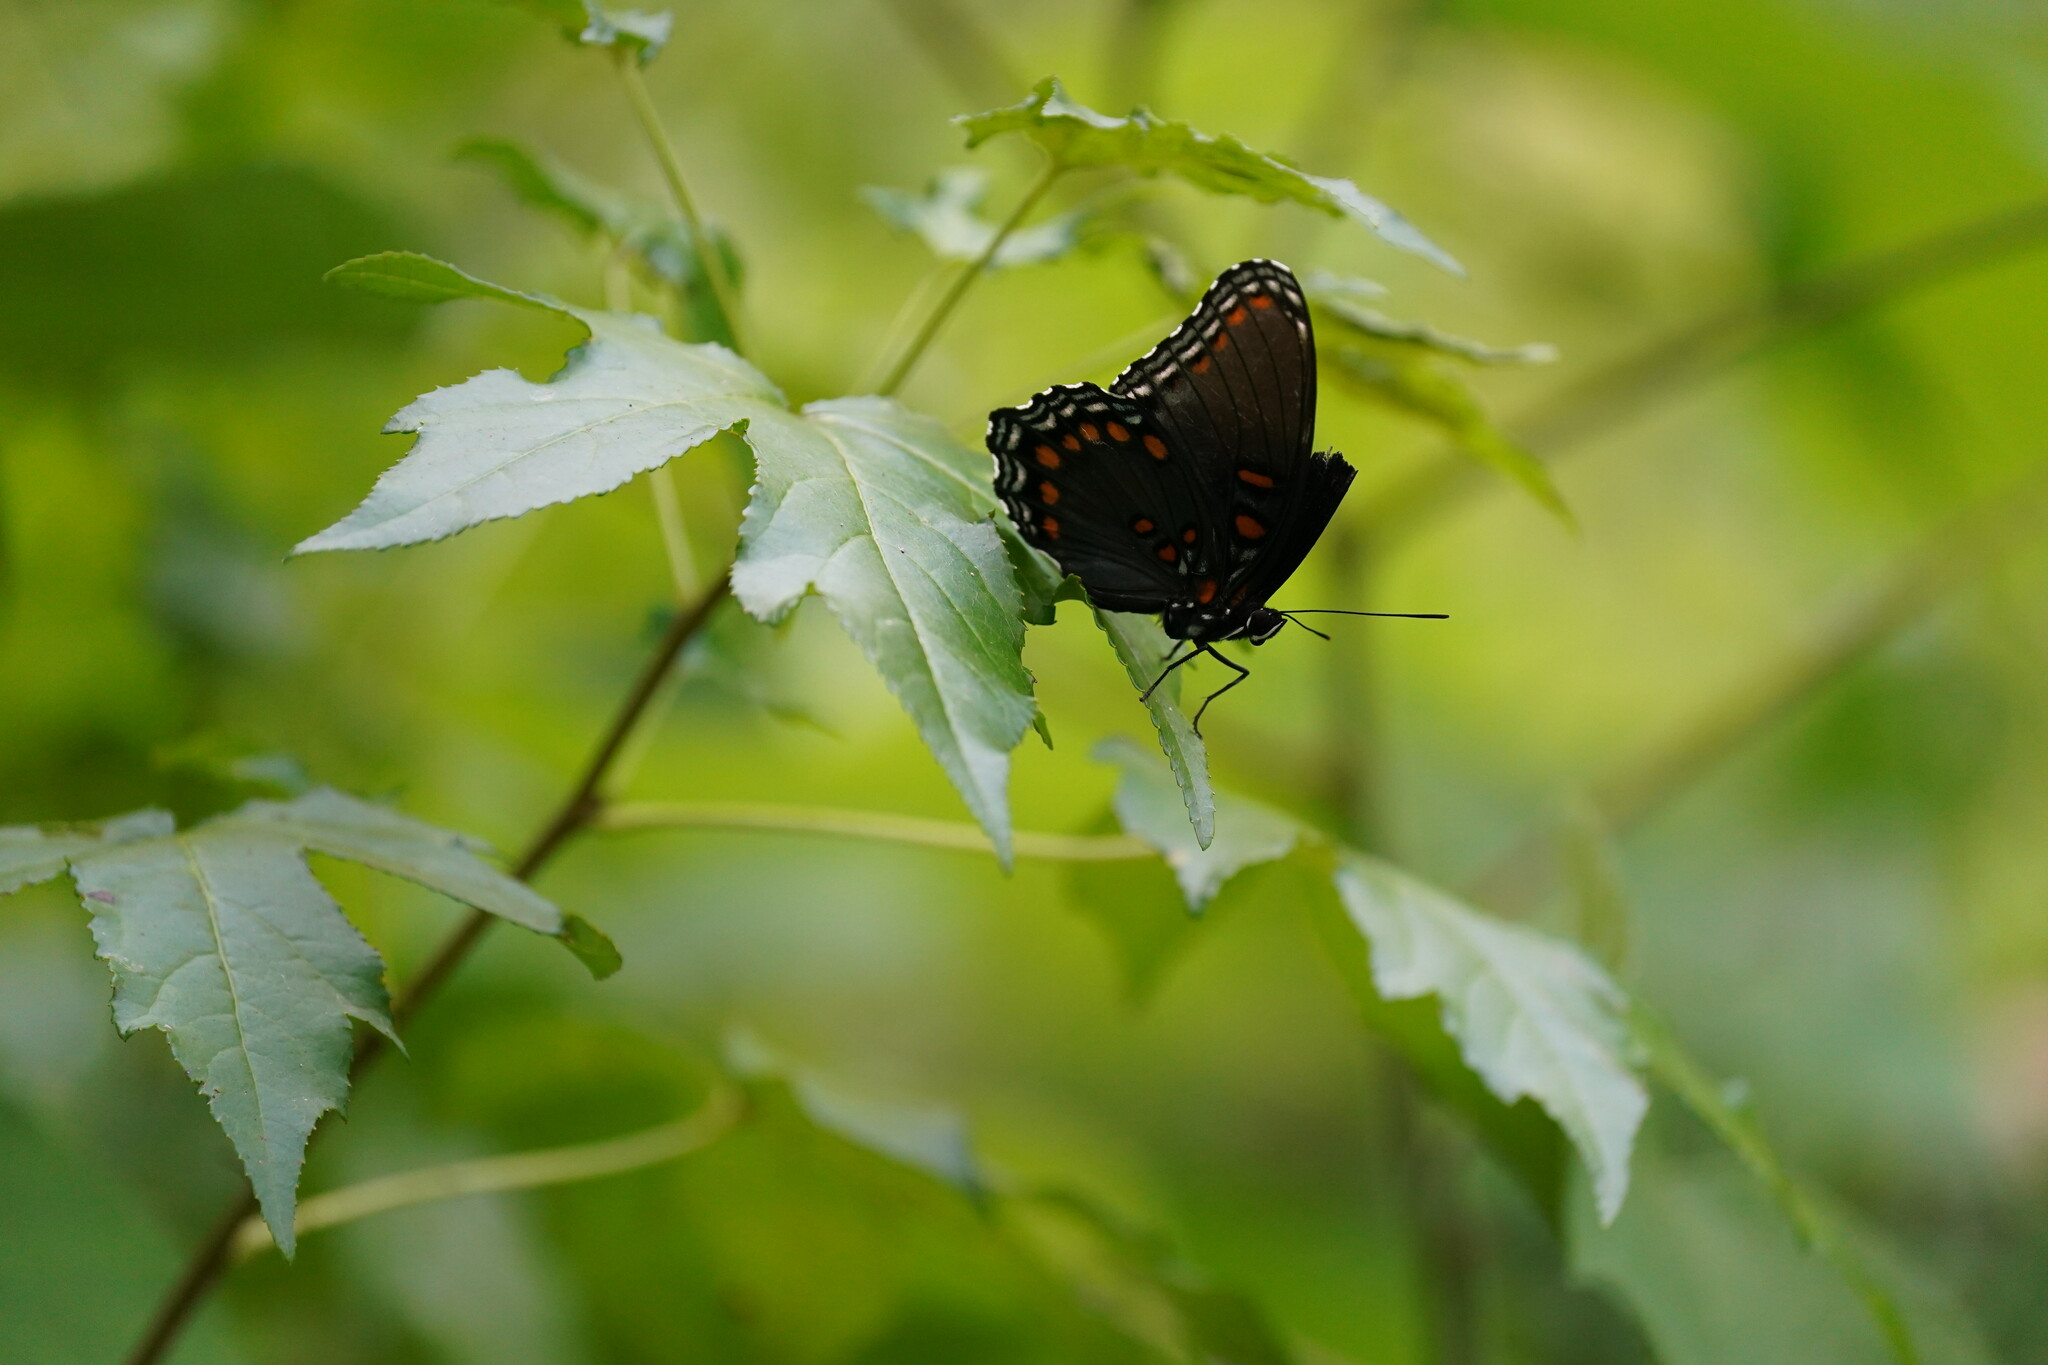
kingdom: Animalia
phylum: Arthropoda
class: Insecta
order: Lepidoptera
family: Nymphalidae
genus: Limenitis
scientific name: Limenitis arthemis
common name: Red-spotted admiral
